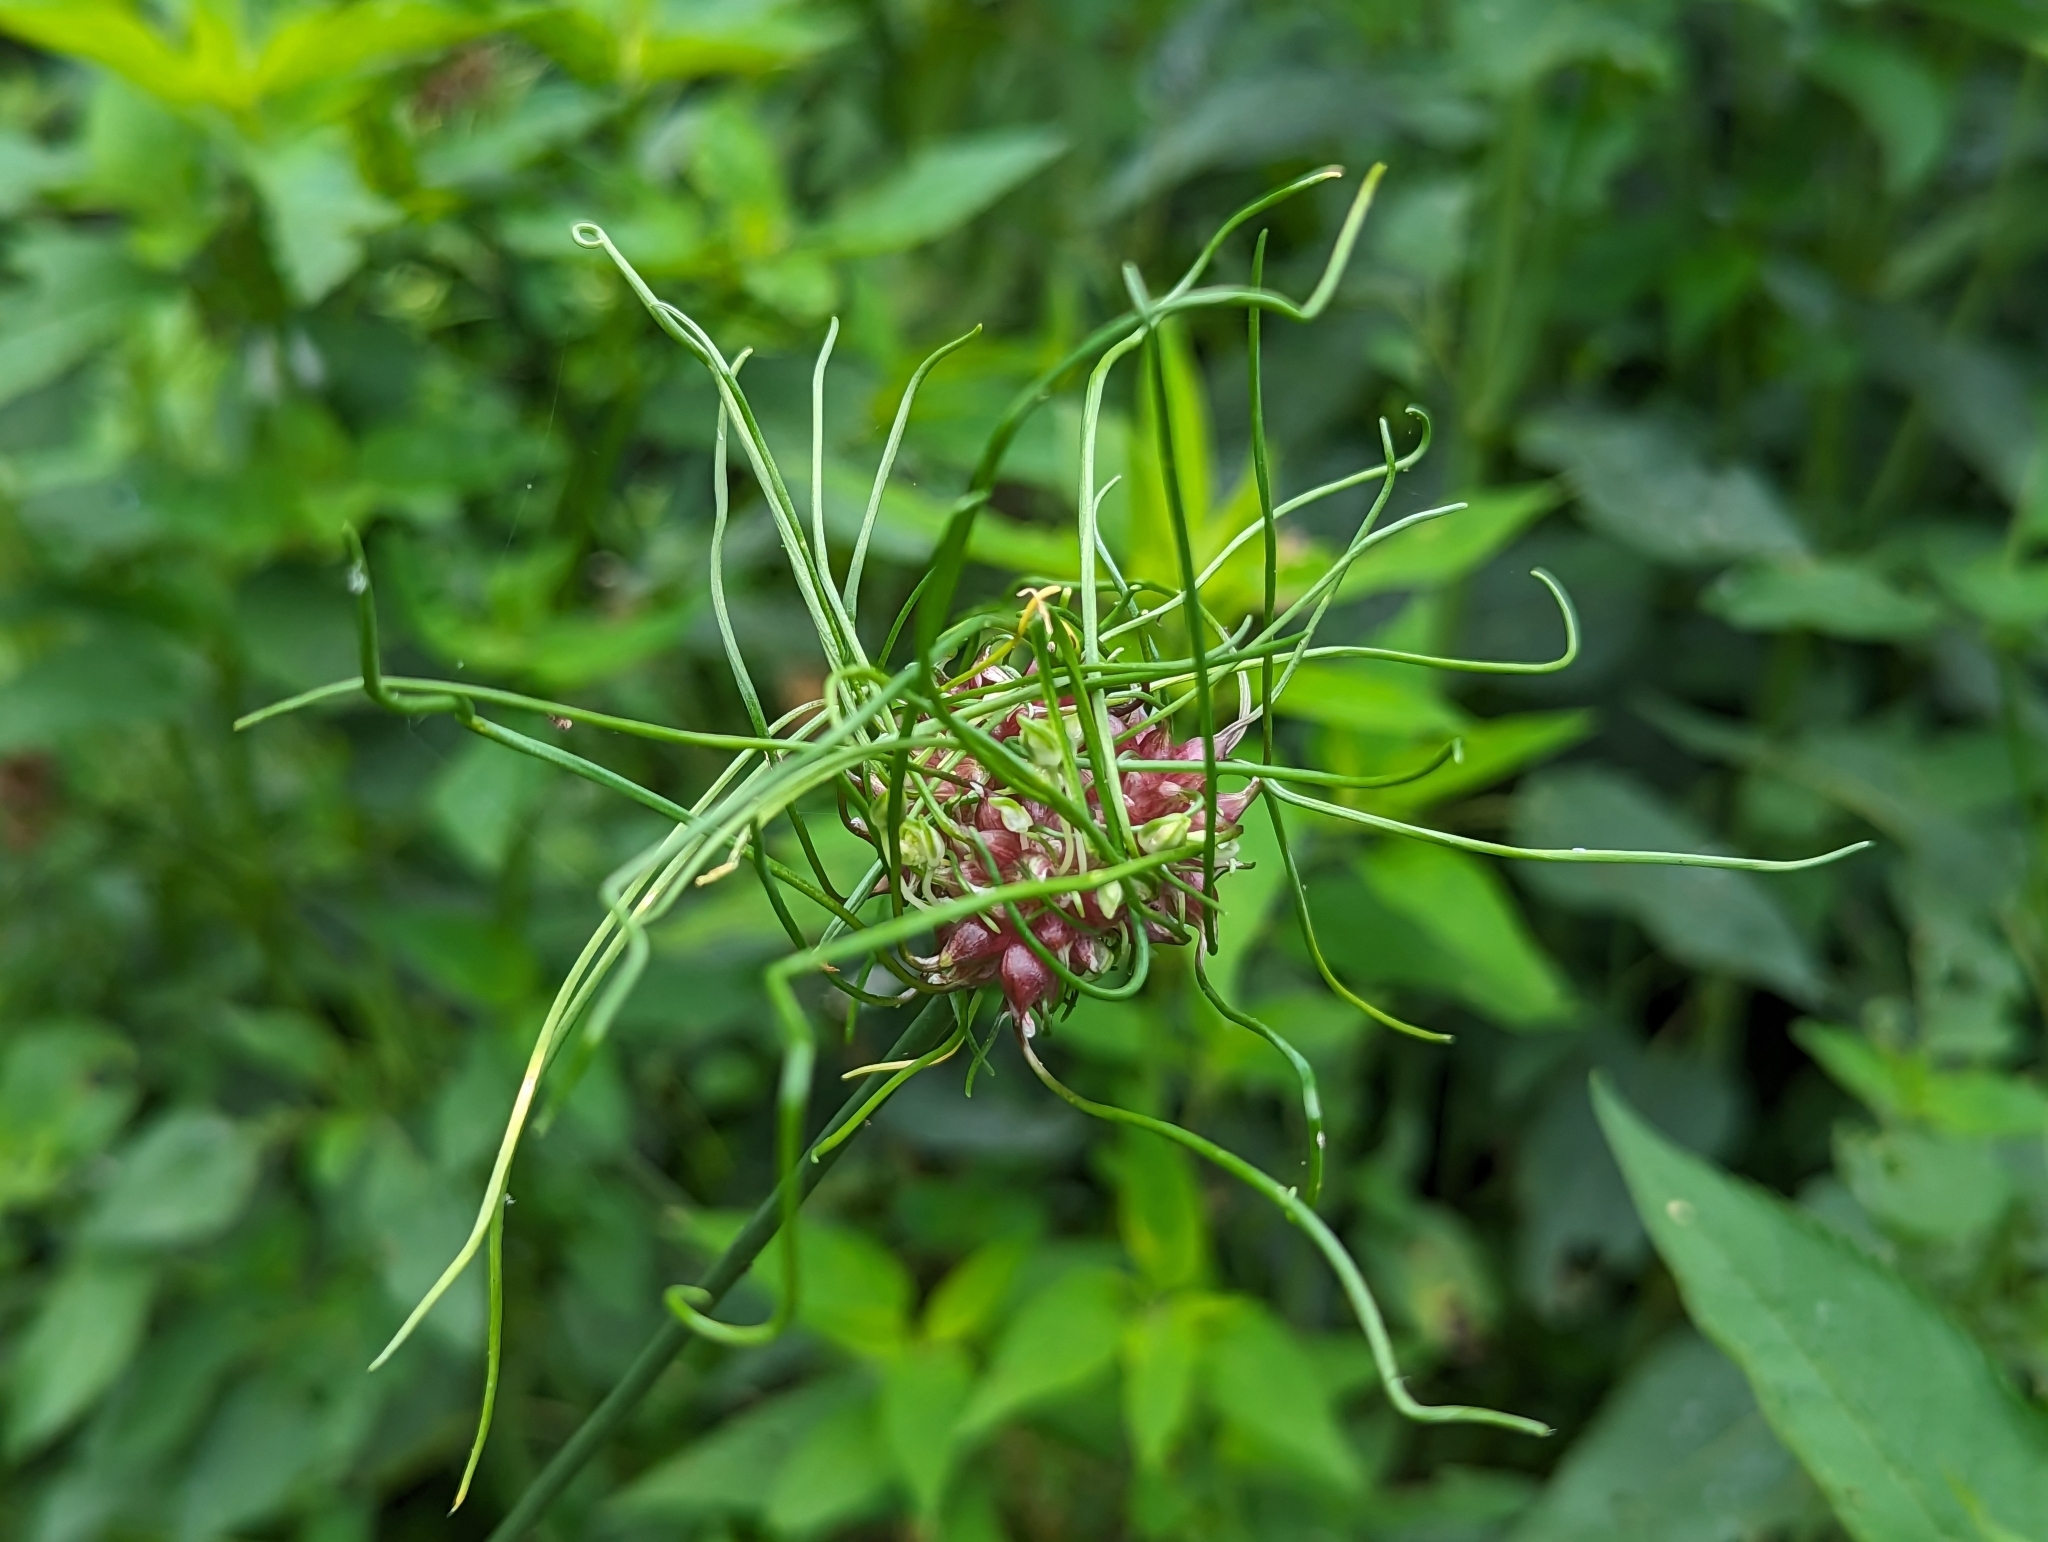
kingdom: Plantae
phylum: Tracheophyta
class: Liliopsida
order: Asparagales
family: Amaryllidaceae
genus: Allium
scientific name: Allium vineale
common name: Crow garlic
